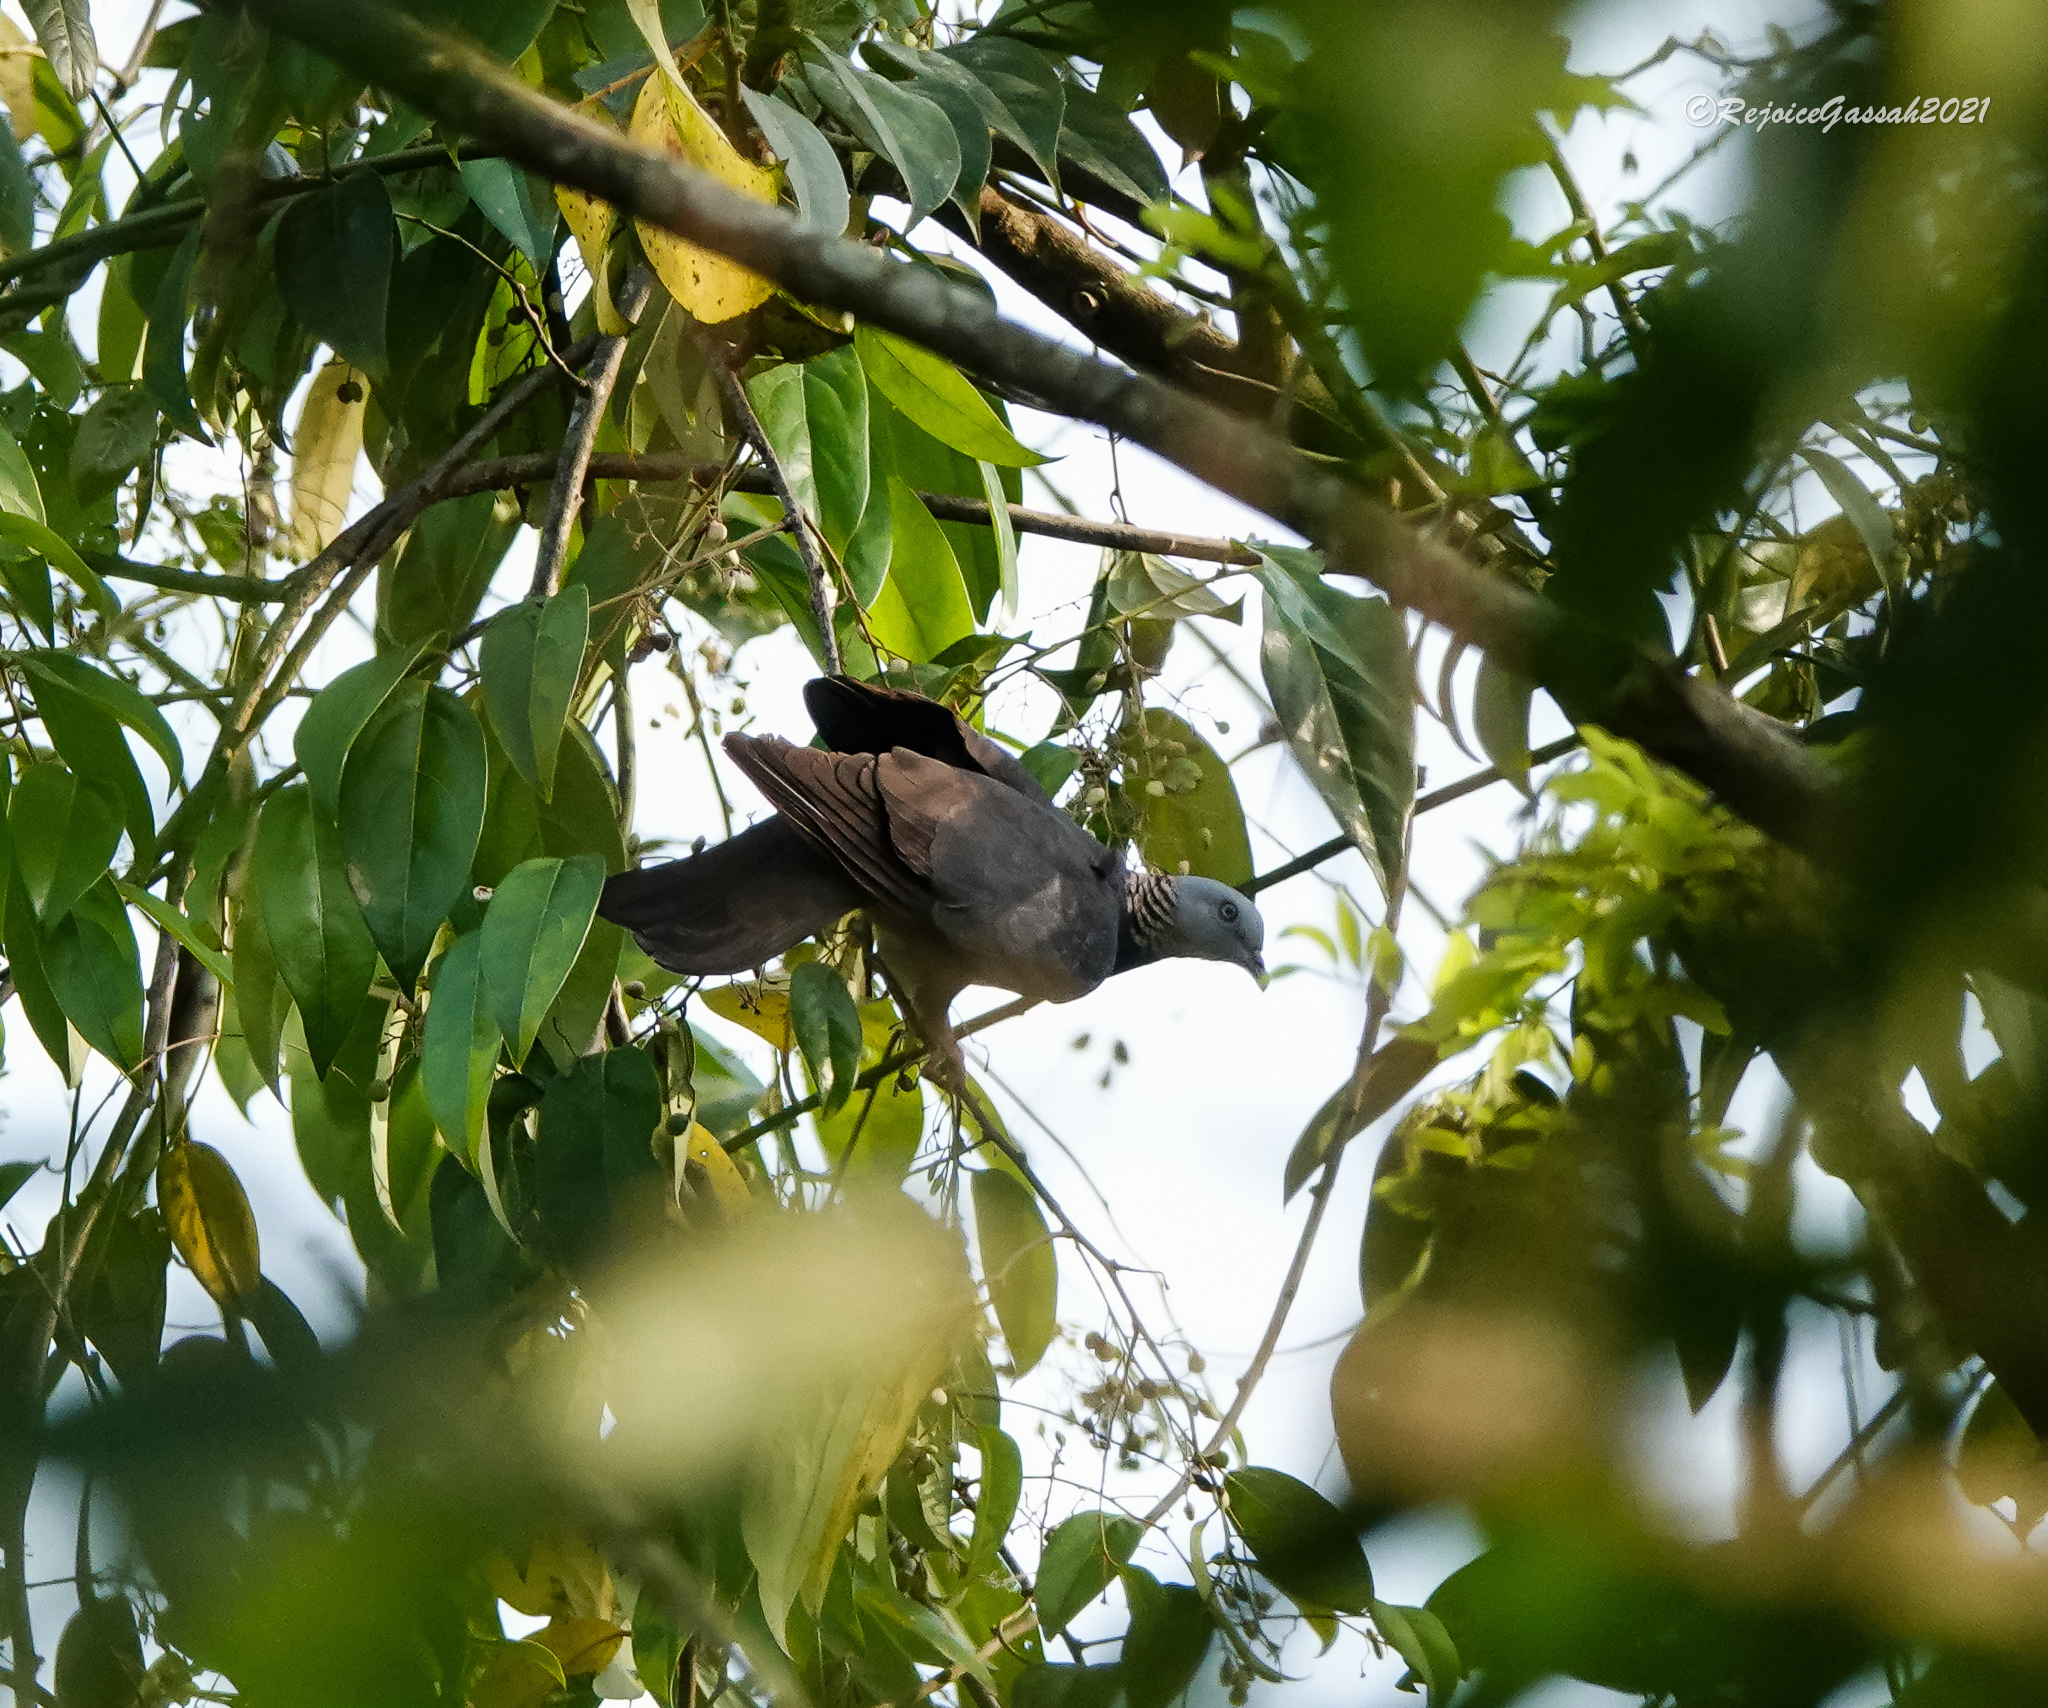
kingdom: Animalia
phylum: Chordata
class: Aves
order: Columbiformes
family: Columbidae
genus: Columba
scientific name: Columba pulchricollis
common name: Ashy wood pigeon
